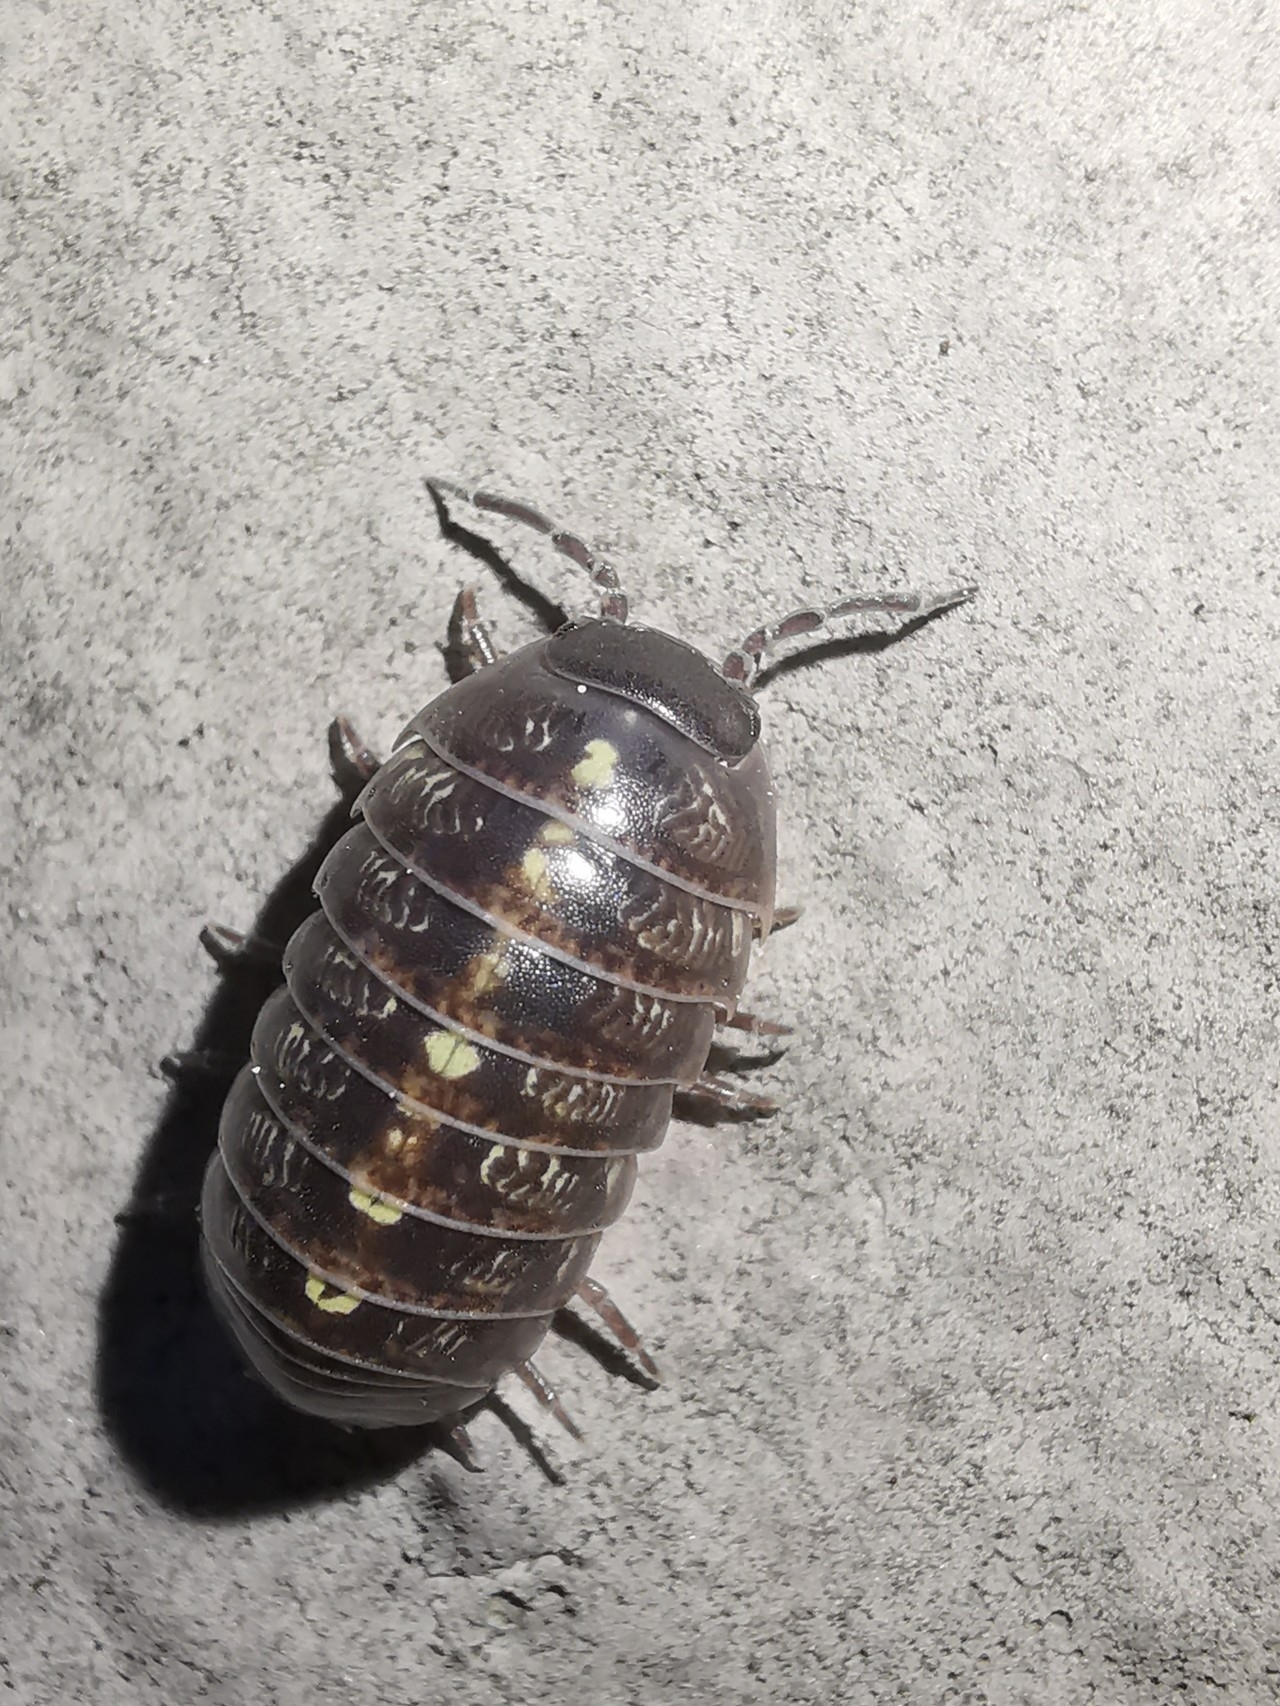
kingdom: Animalia
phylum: Arthropoda
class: Malacostraca
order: Isopoda
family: Armadillidiidae
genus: Armadillidium
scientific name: Armadillidium vulgare
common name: Common pill woodlouse
